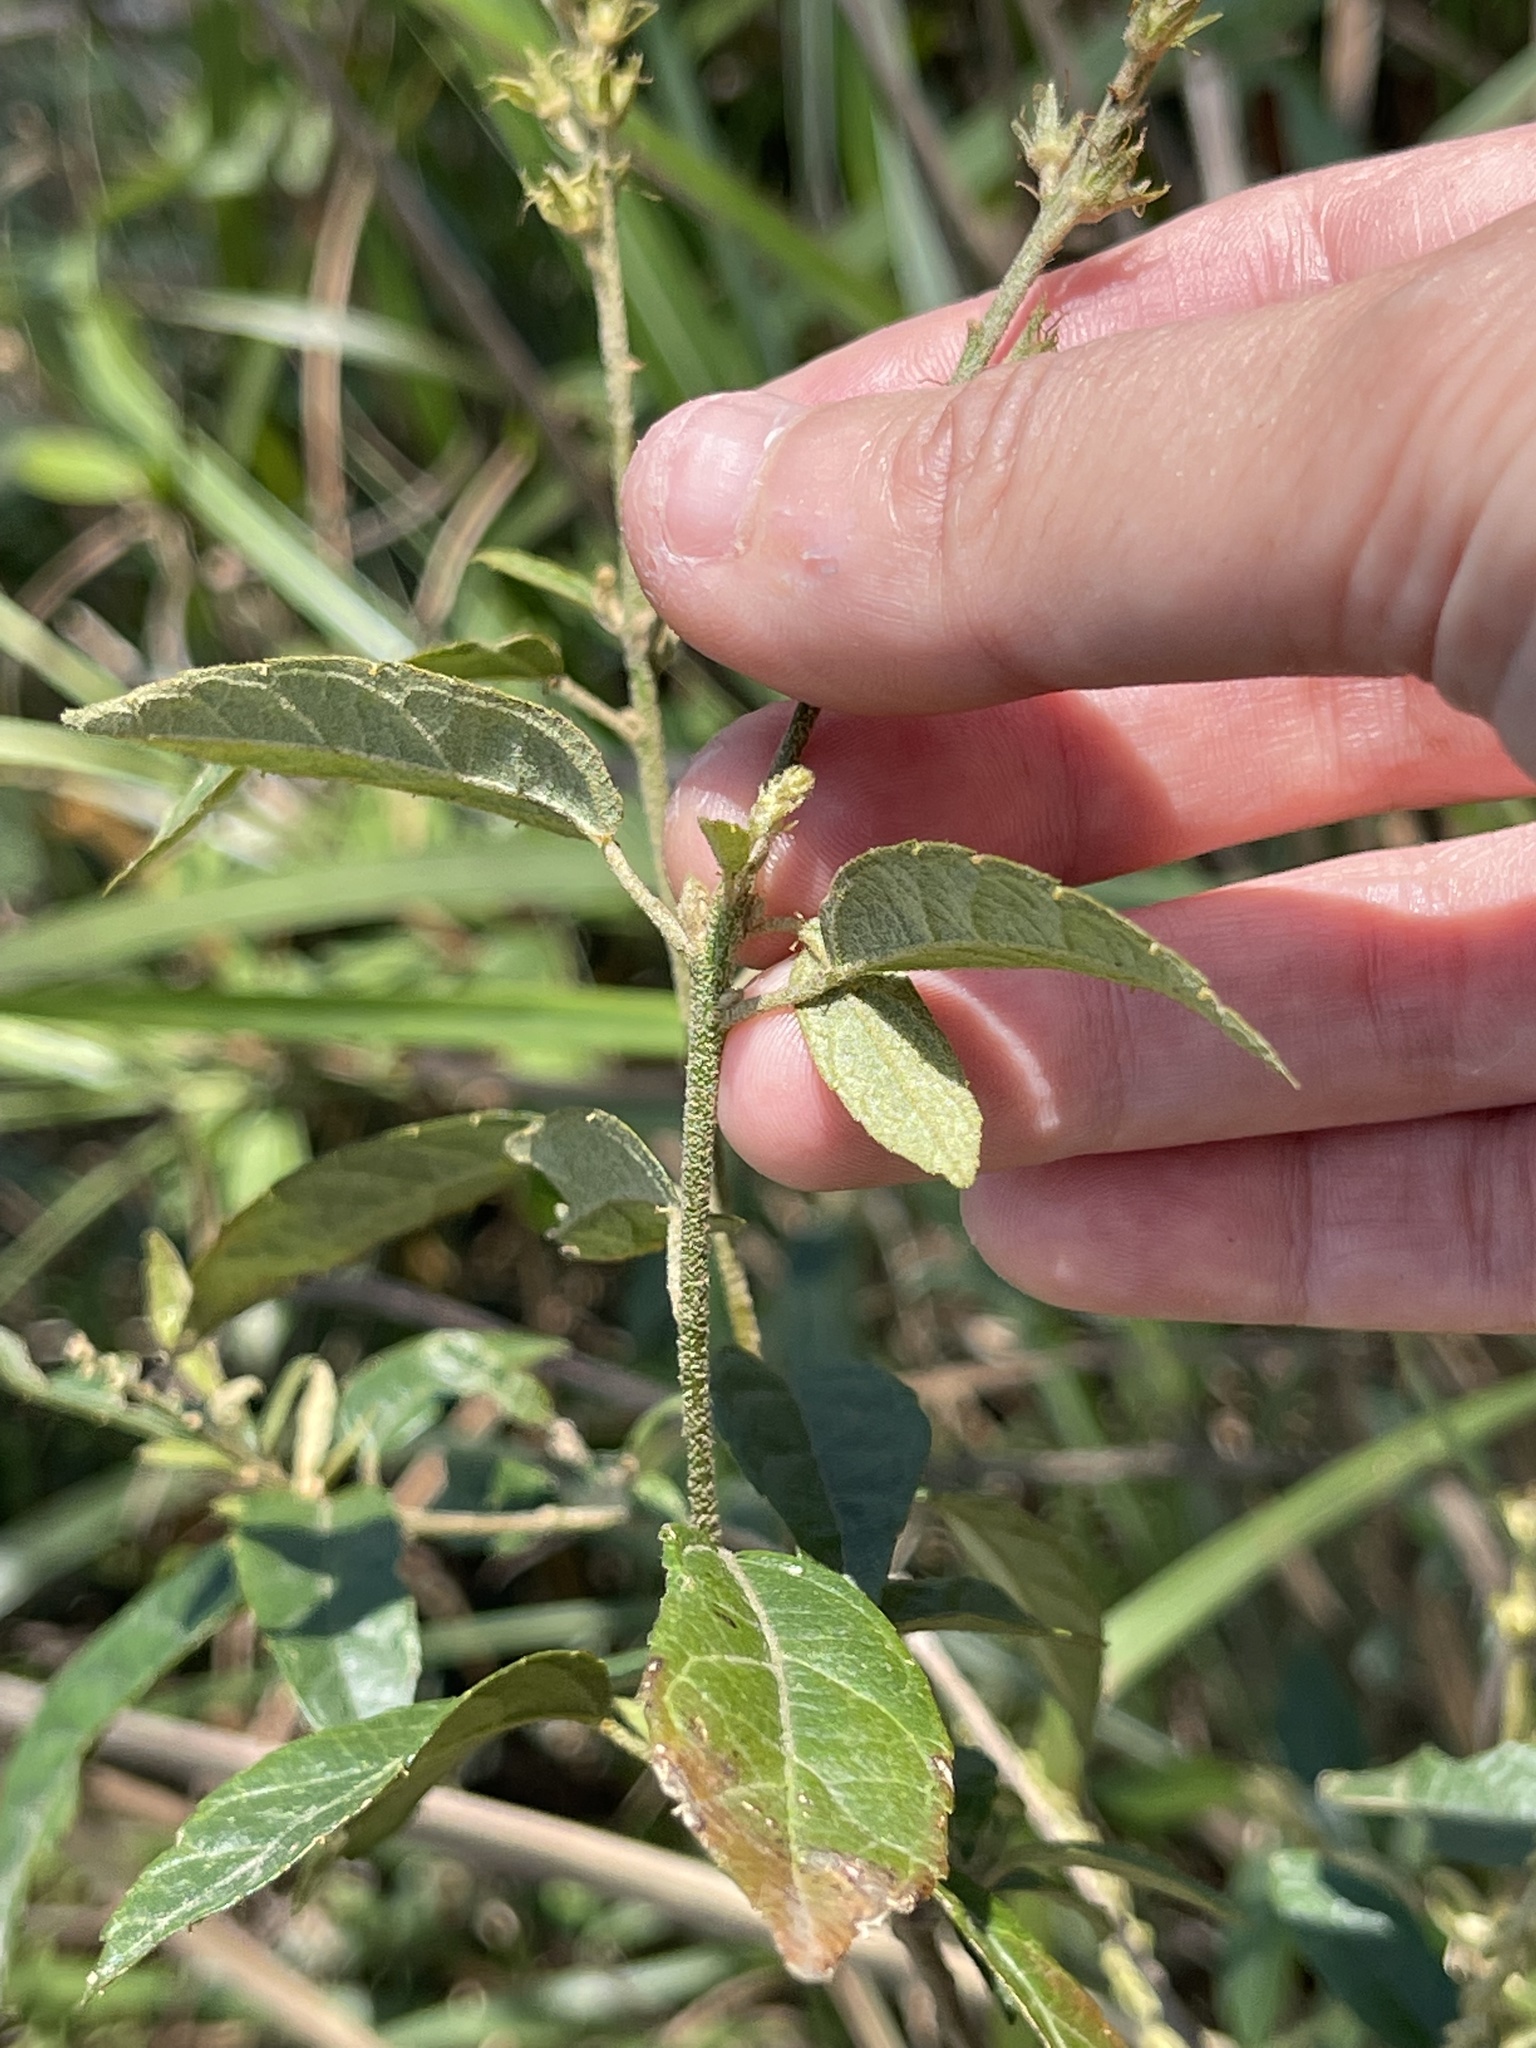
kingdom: Plantae
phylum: Tracheophyta
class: Magnoliopsida
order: Malpighiales
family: Euphorbiaceae
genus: Croton
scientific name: Croton lachnocarpus
